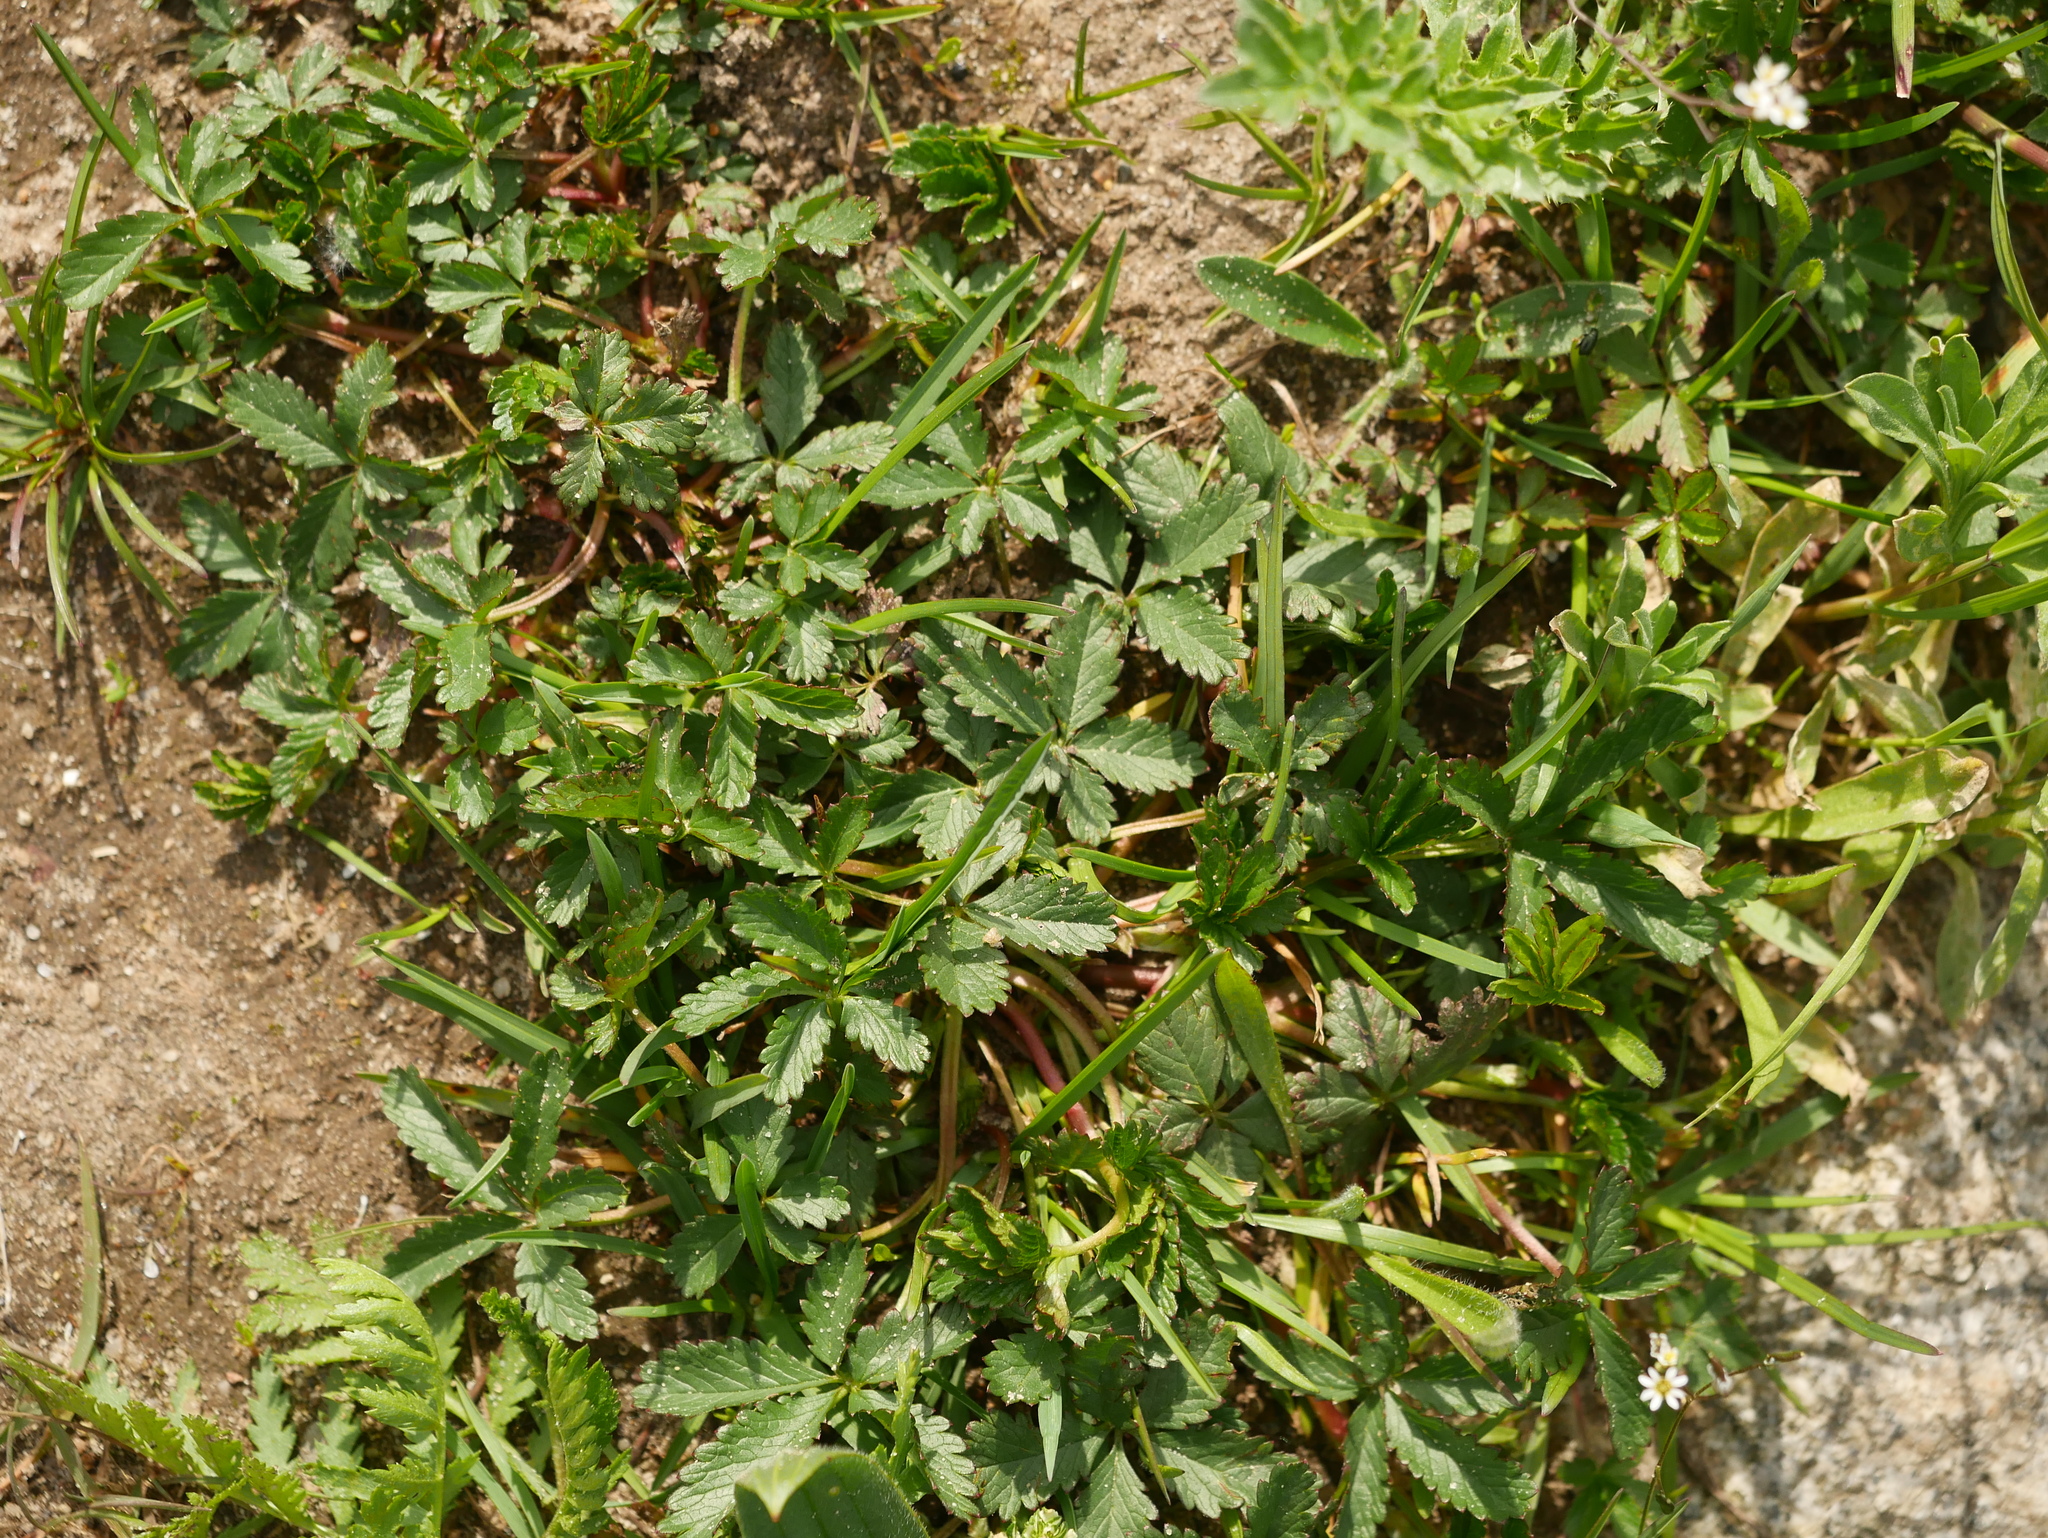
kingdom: Plantae
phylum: Tracheophyta
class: Magnoliopsida
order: Rosales
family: Rosaceae
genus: Potentilla
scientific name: Potentilla reptans
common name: Creeping cinquefoil
